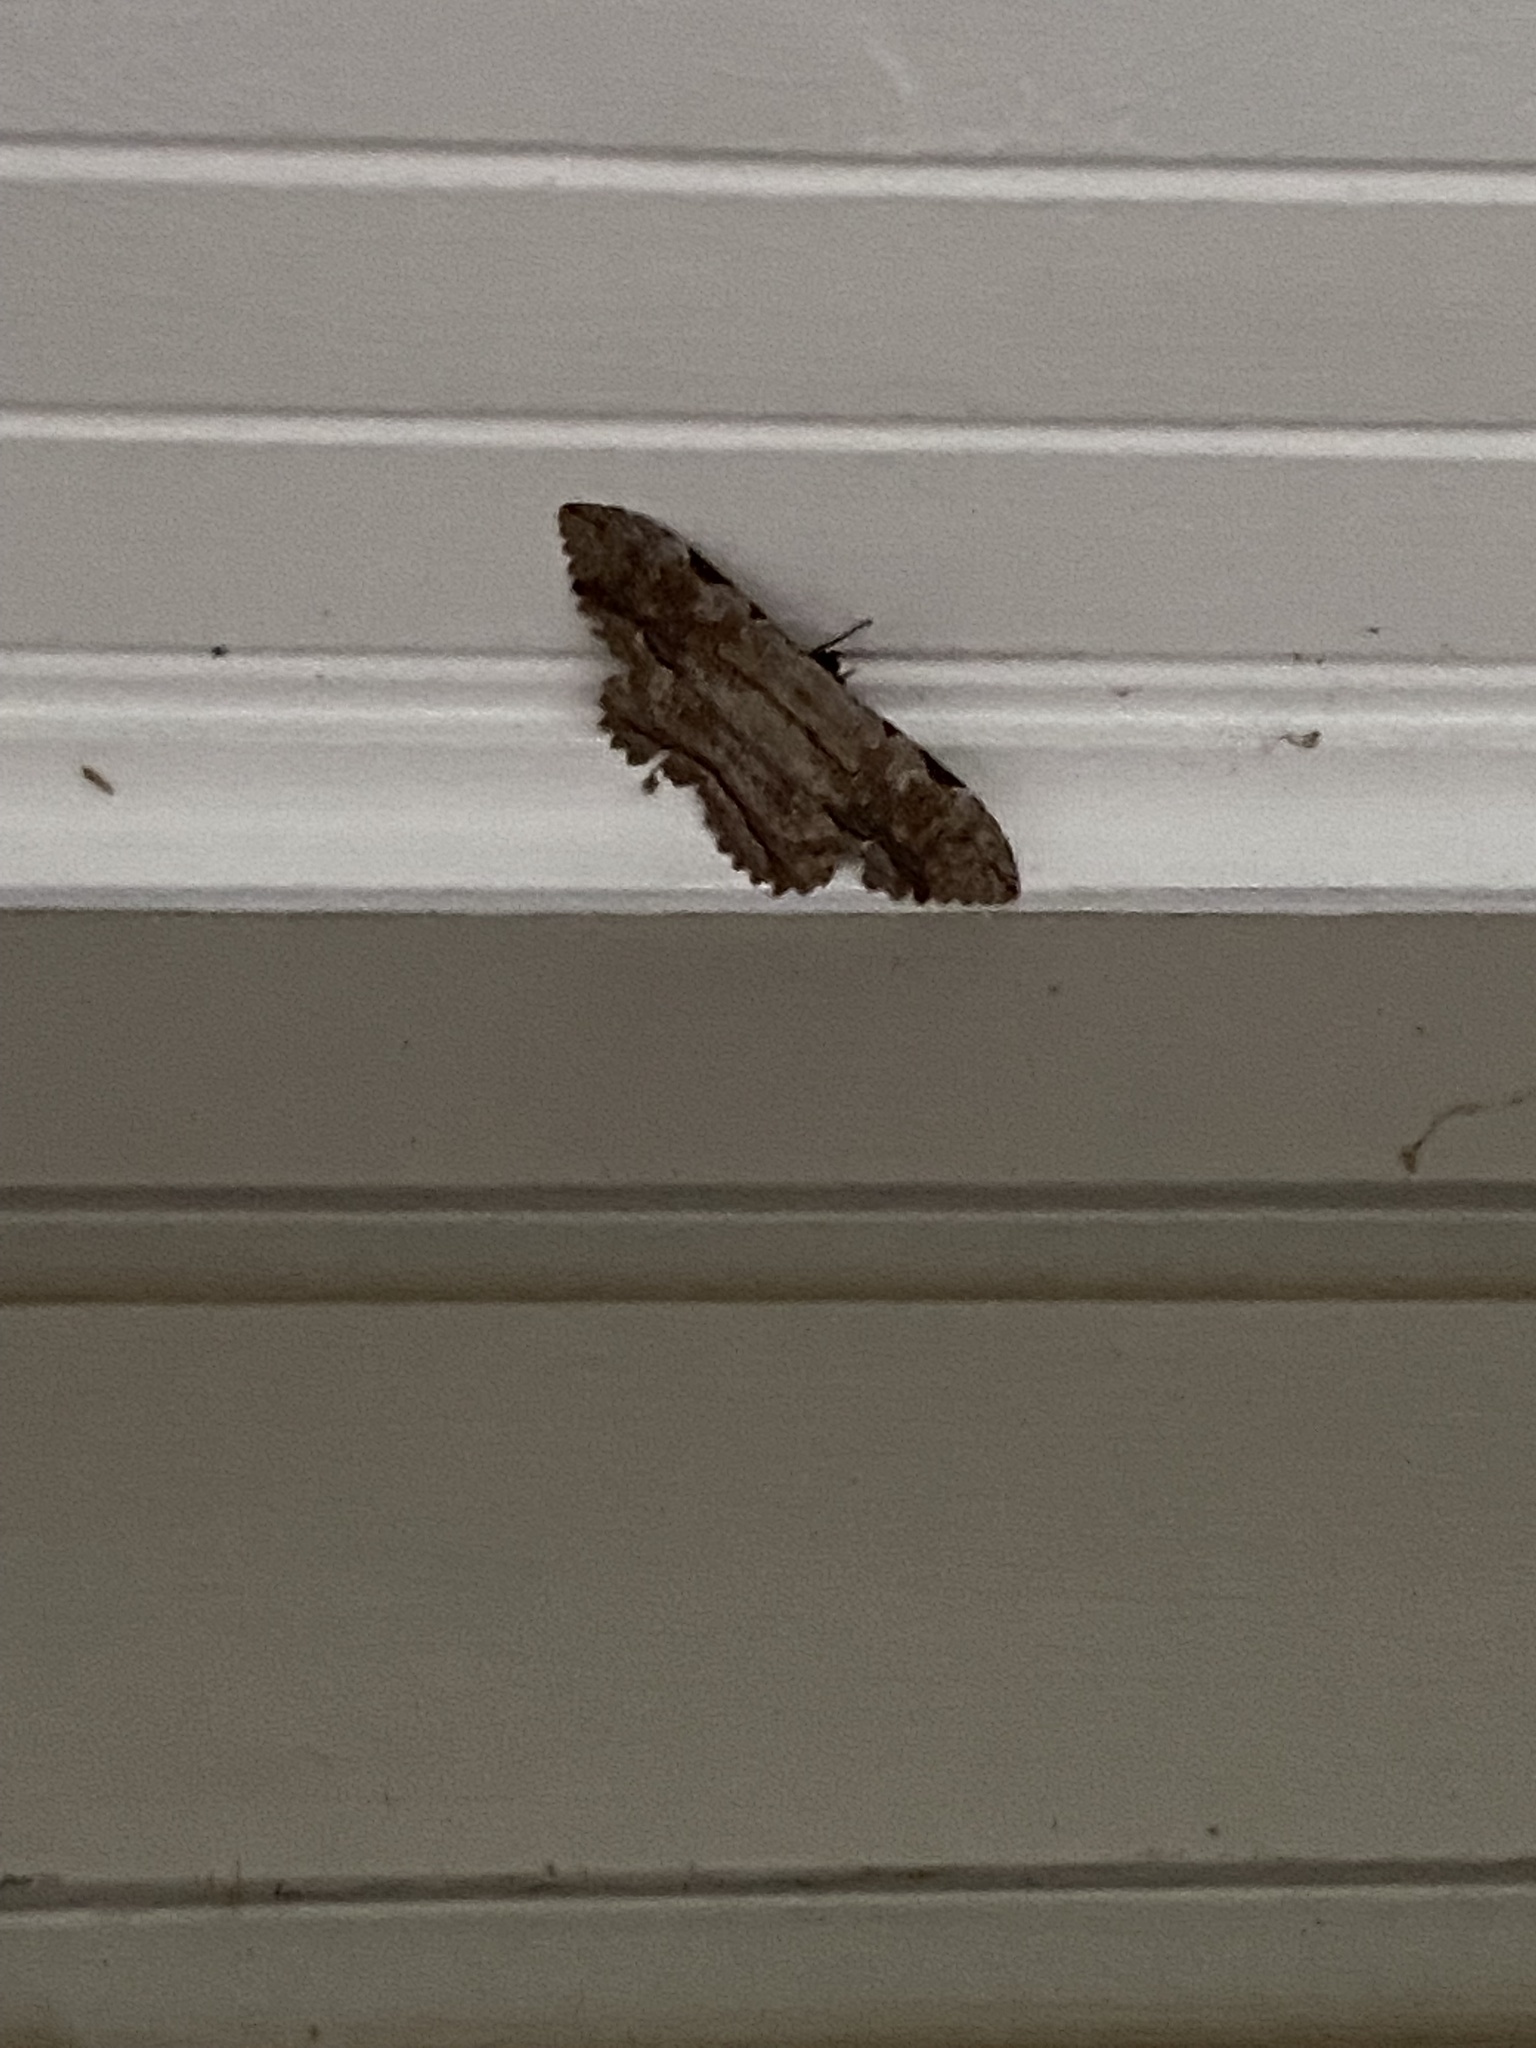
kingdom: Animalia
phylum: Arthropoda
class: Insecta
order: Lepidoptera
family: Erebidae
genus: Thysania
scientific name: Thysania zenobia
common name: Owl moth
